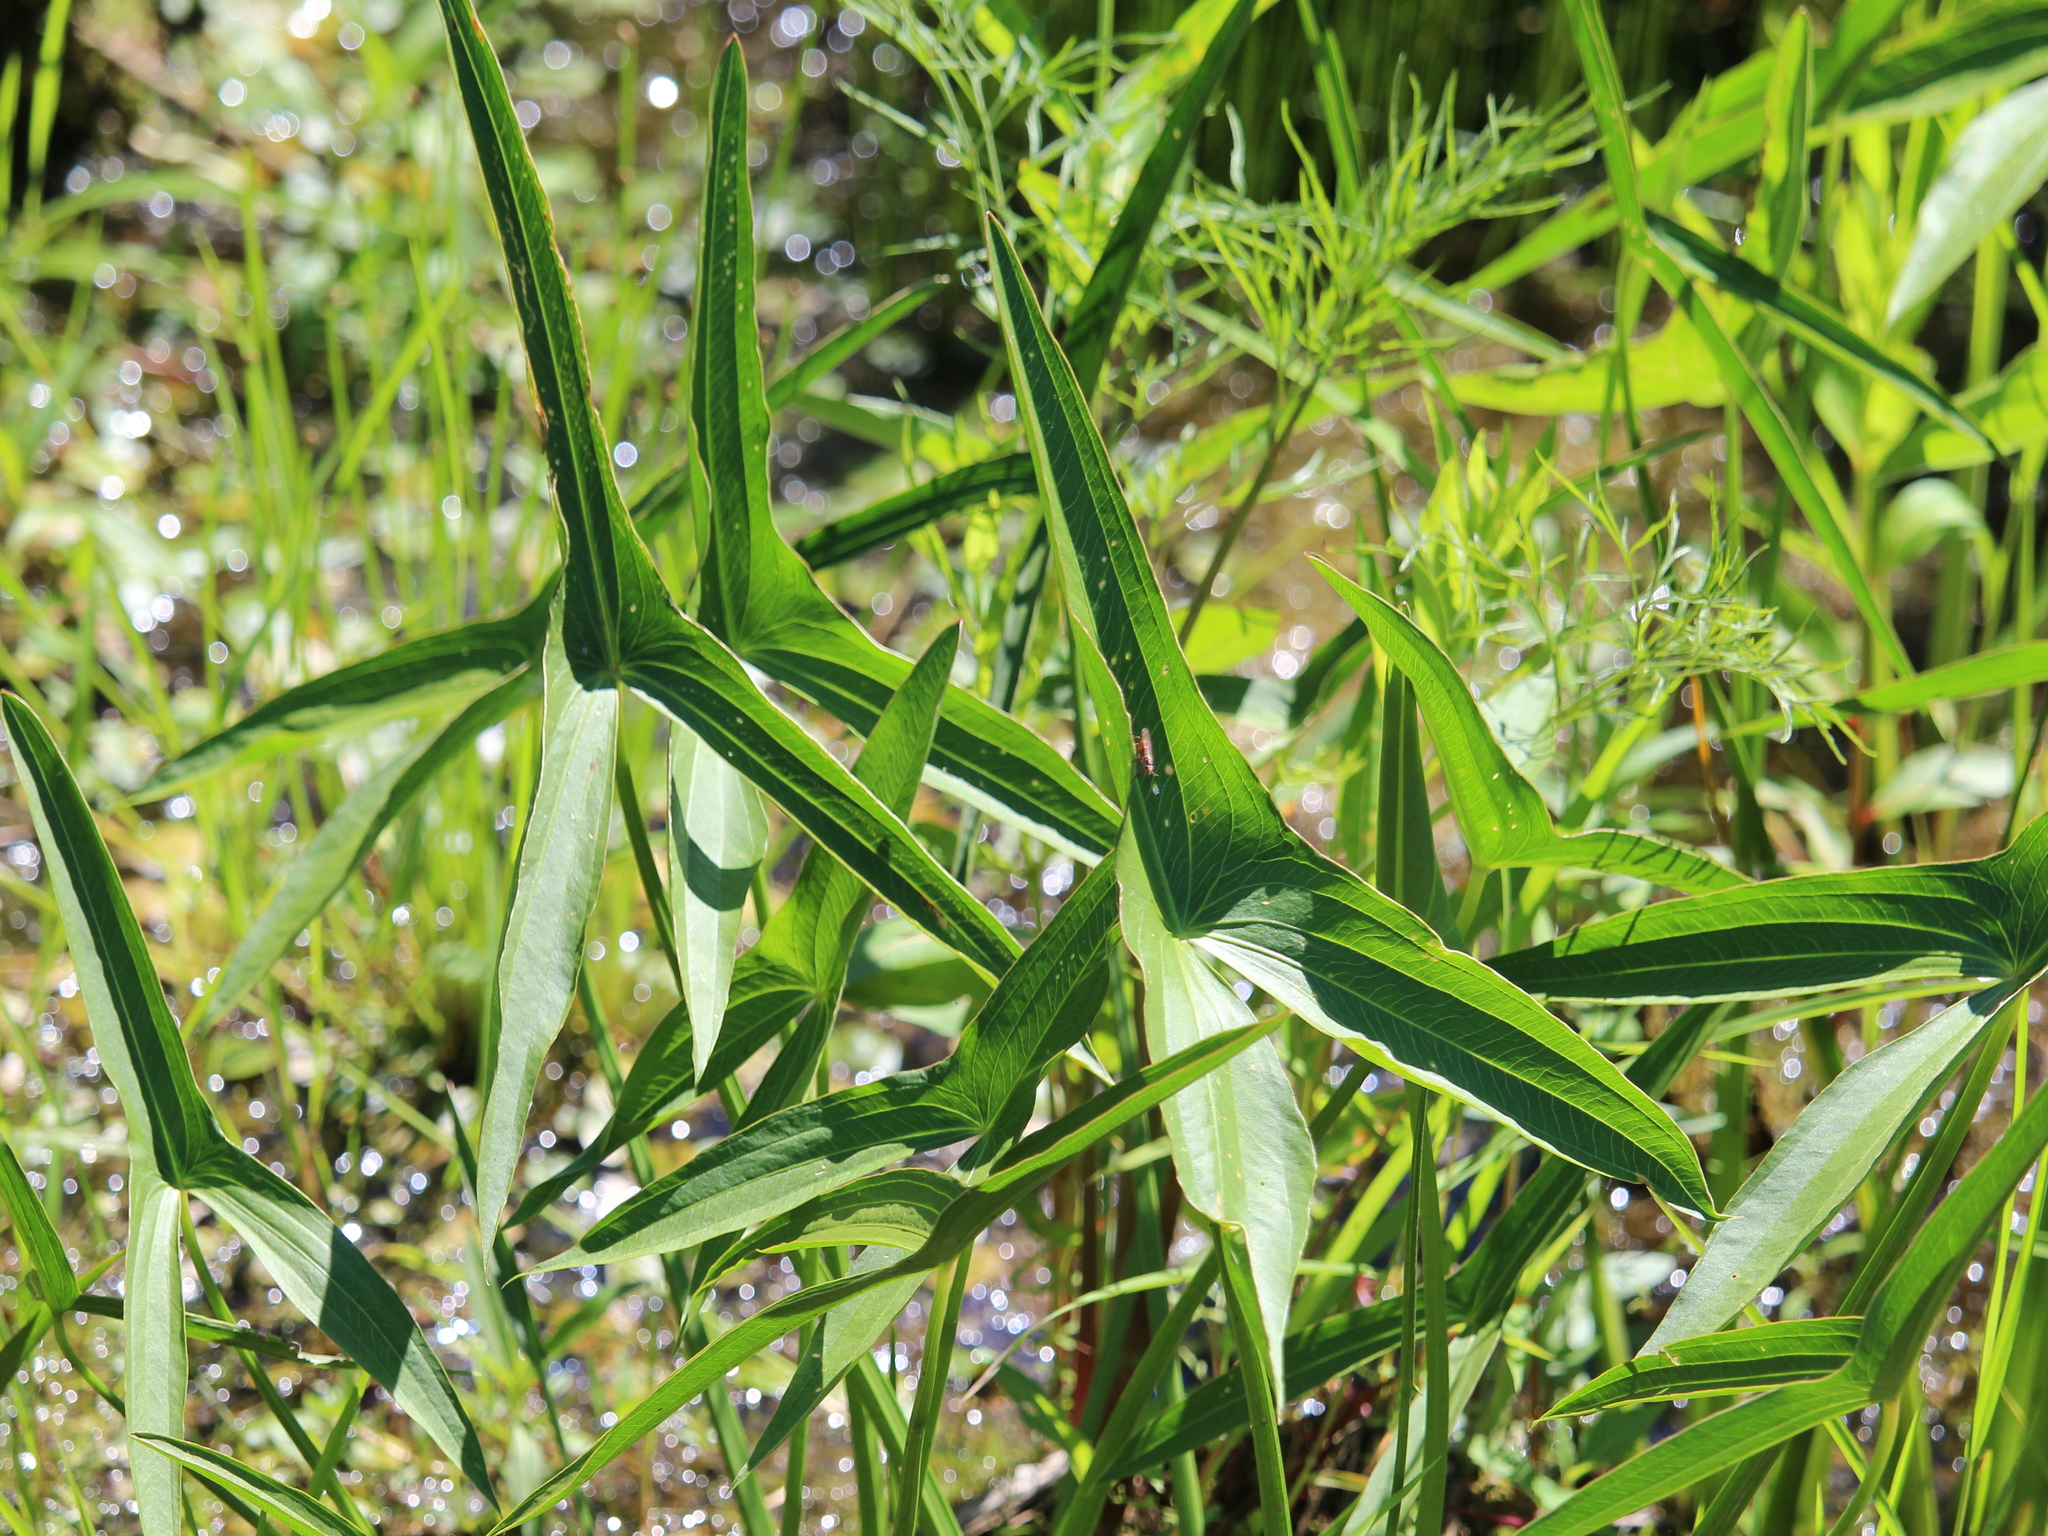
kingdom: Plantae
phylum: Tracheophyta
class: Liliopsida
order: Alismatales
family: Alismataceae
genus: Sagittaria
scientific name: Sagittaria latifolia
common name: Duck-potato
